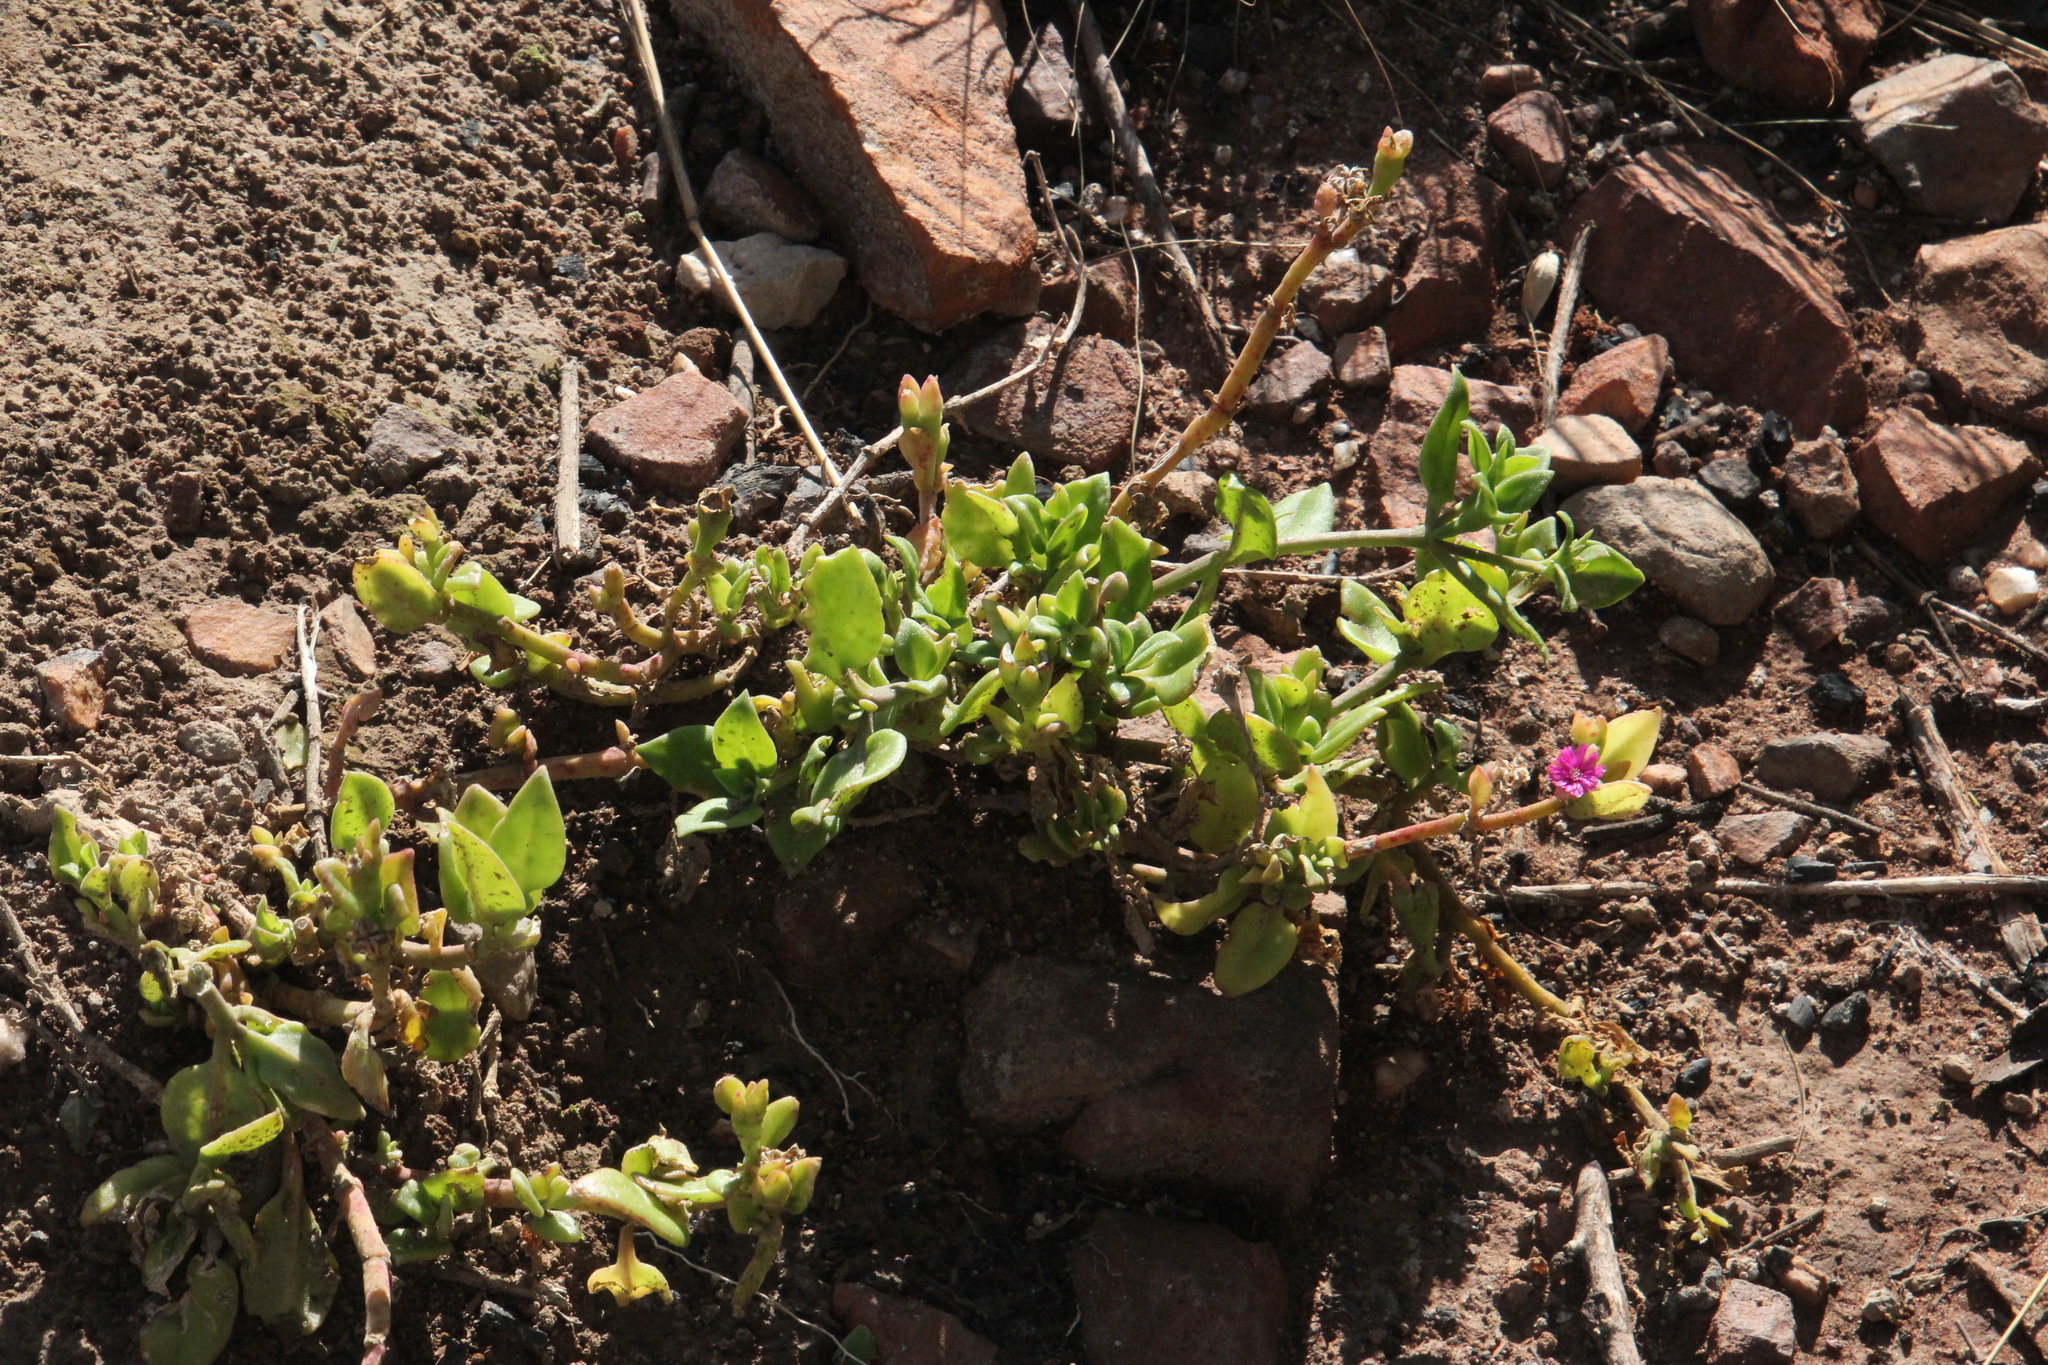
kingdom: Plantae
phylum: Tracheophyta
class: Magnoliopsida
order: Caryophyllales
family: Aizoaceae
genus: Mesembryanthemum
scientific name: Mesembryanthemum cordifolium
